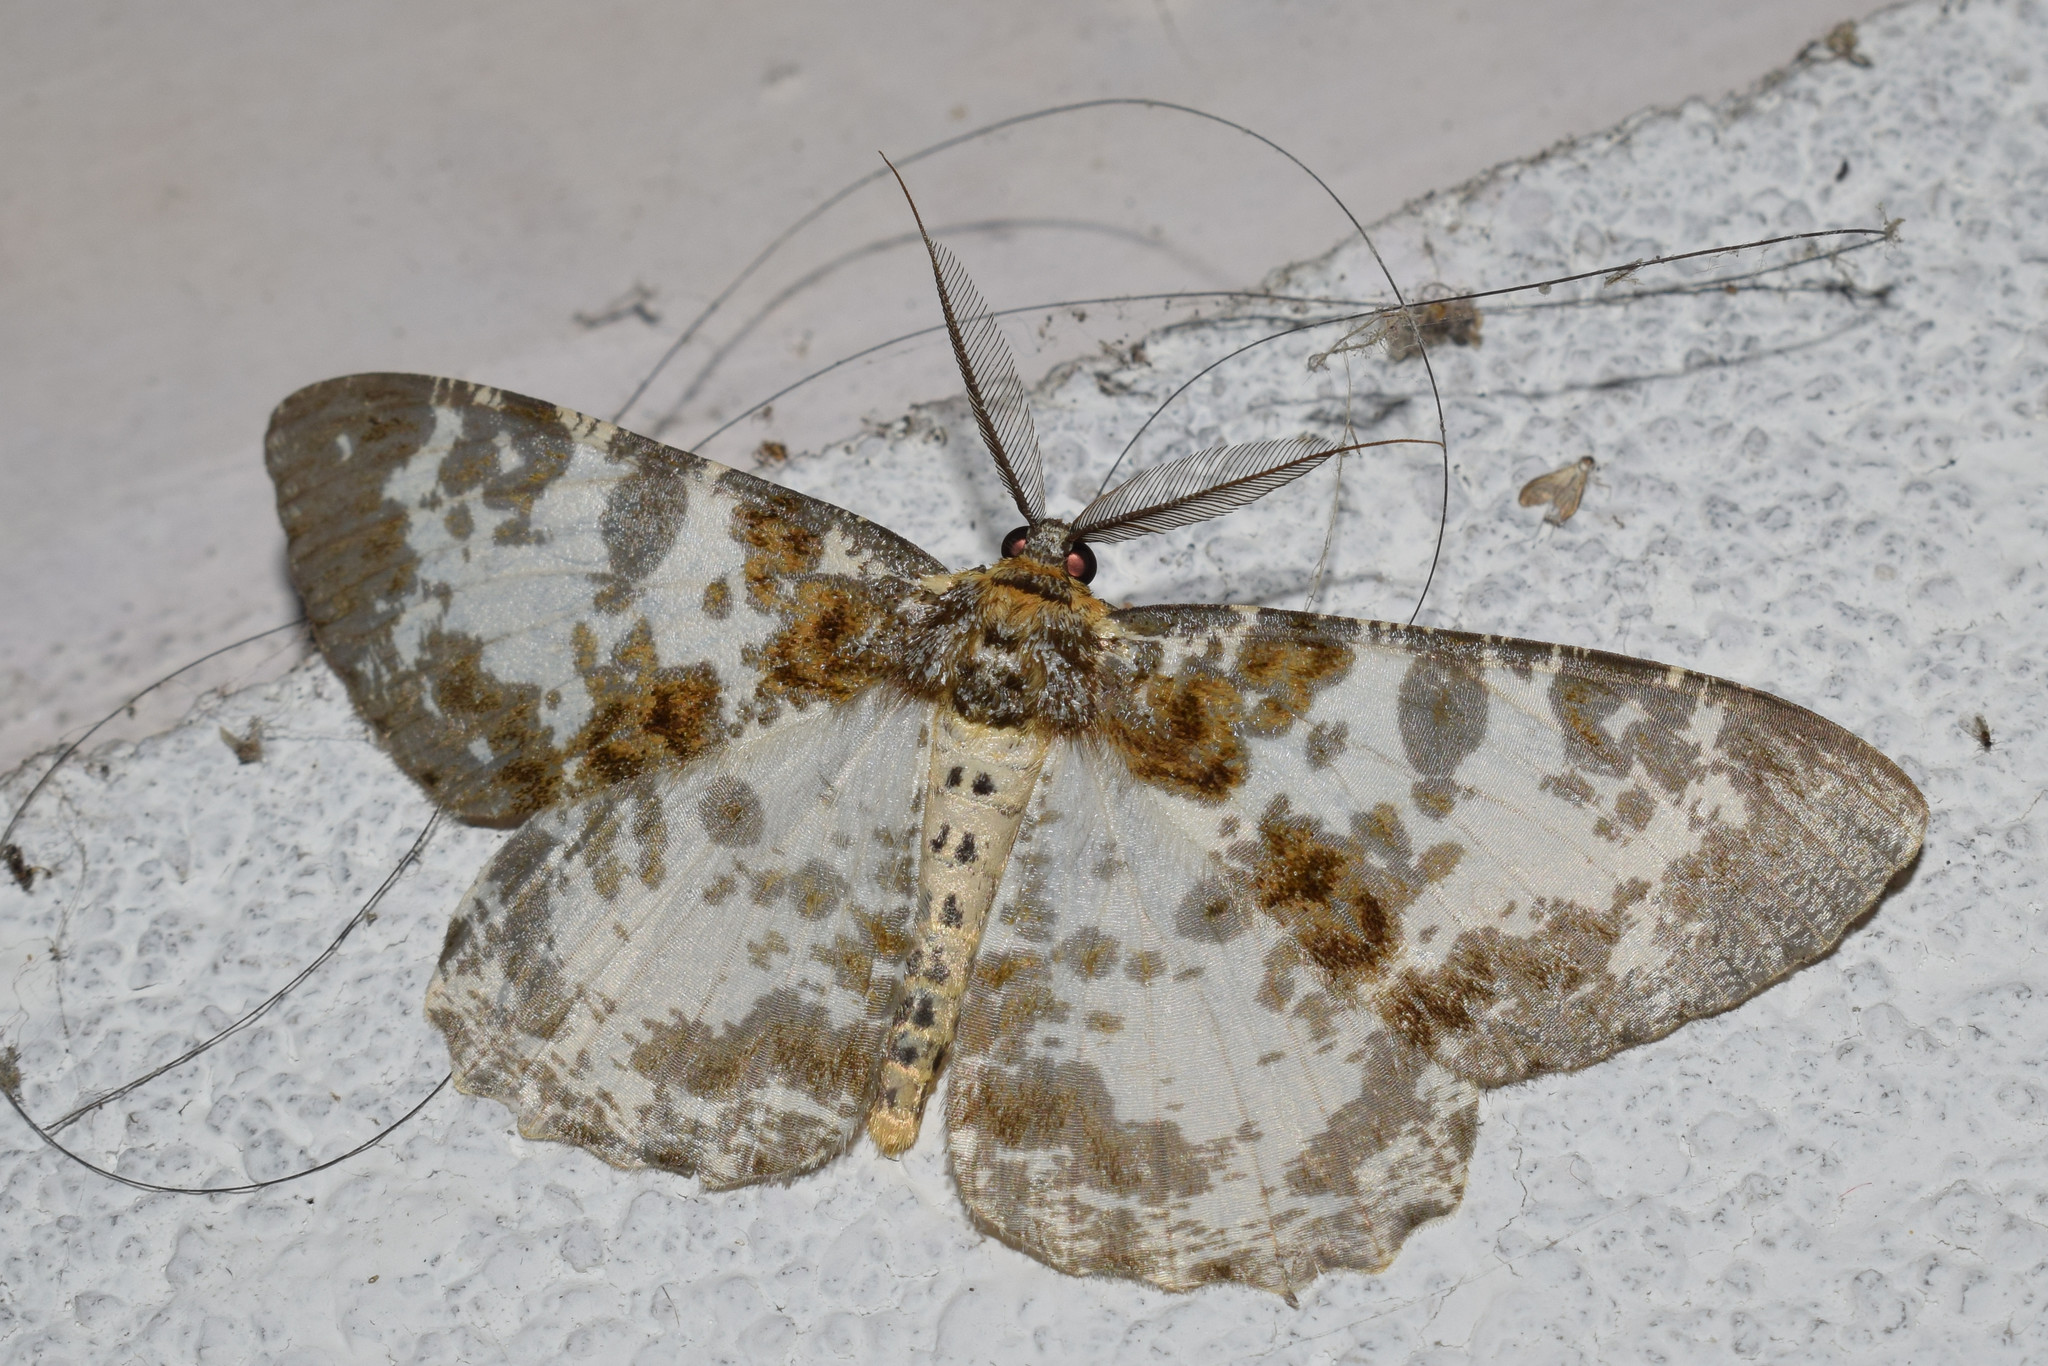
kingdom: Animalia
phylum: Arthropoda
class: Insecta
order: Lepidoptera
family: Geometridae
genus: Hypomecis
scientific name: Hypomecis pardaria
